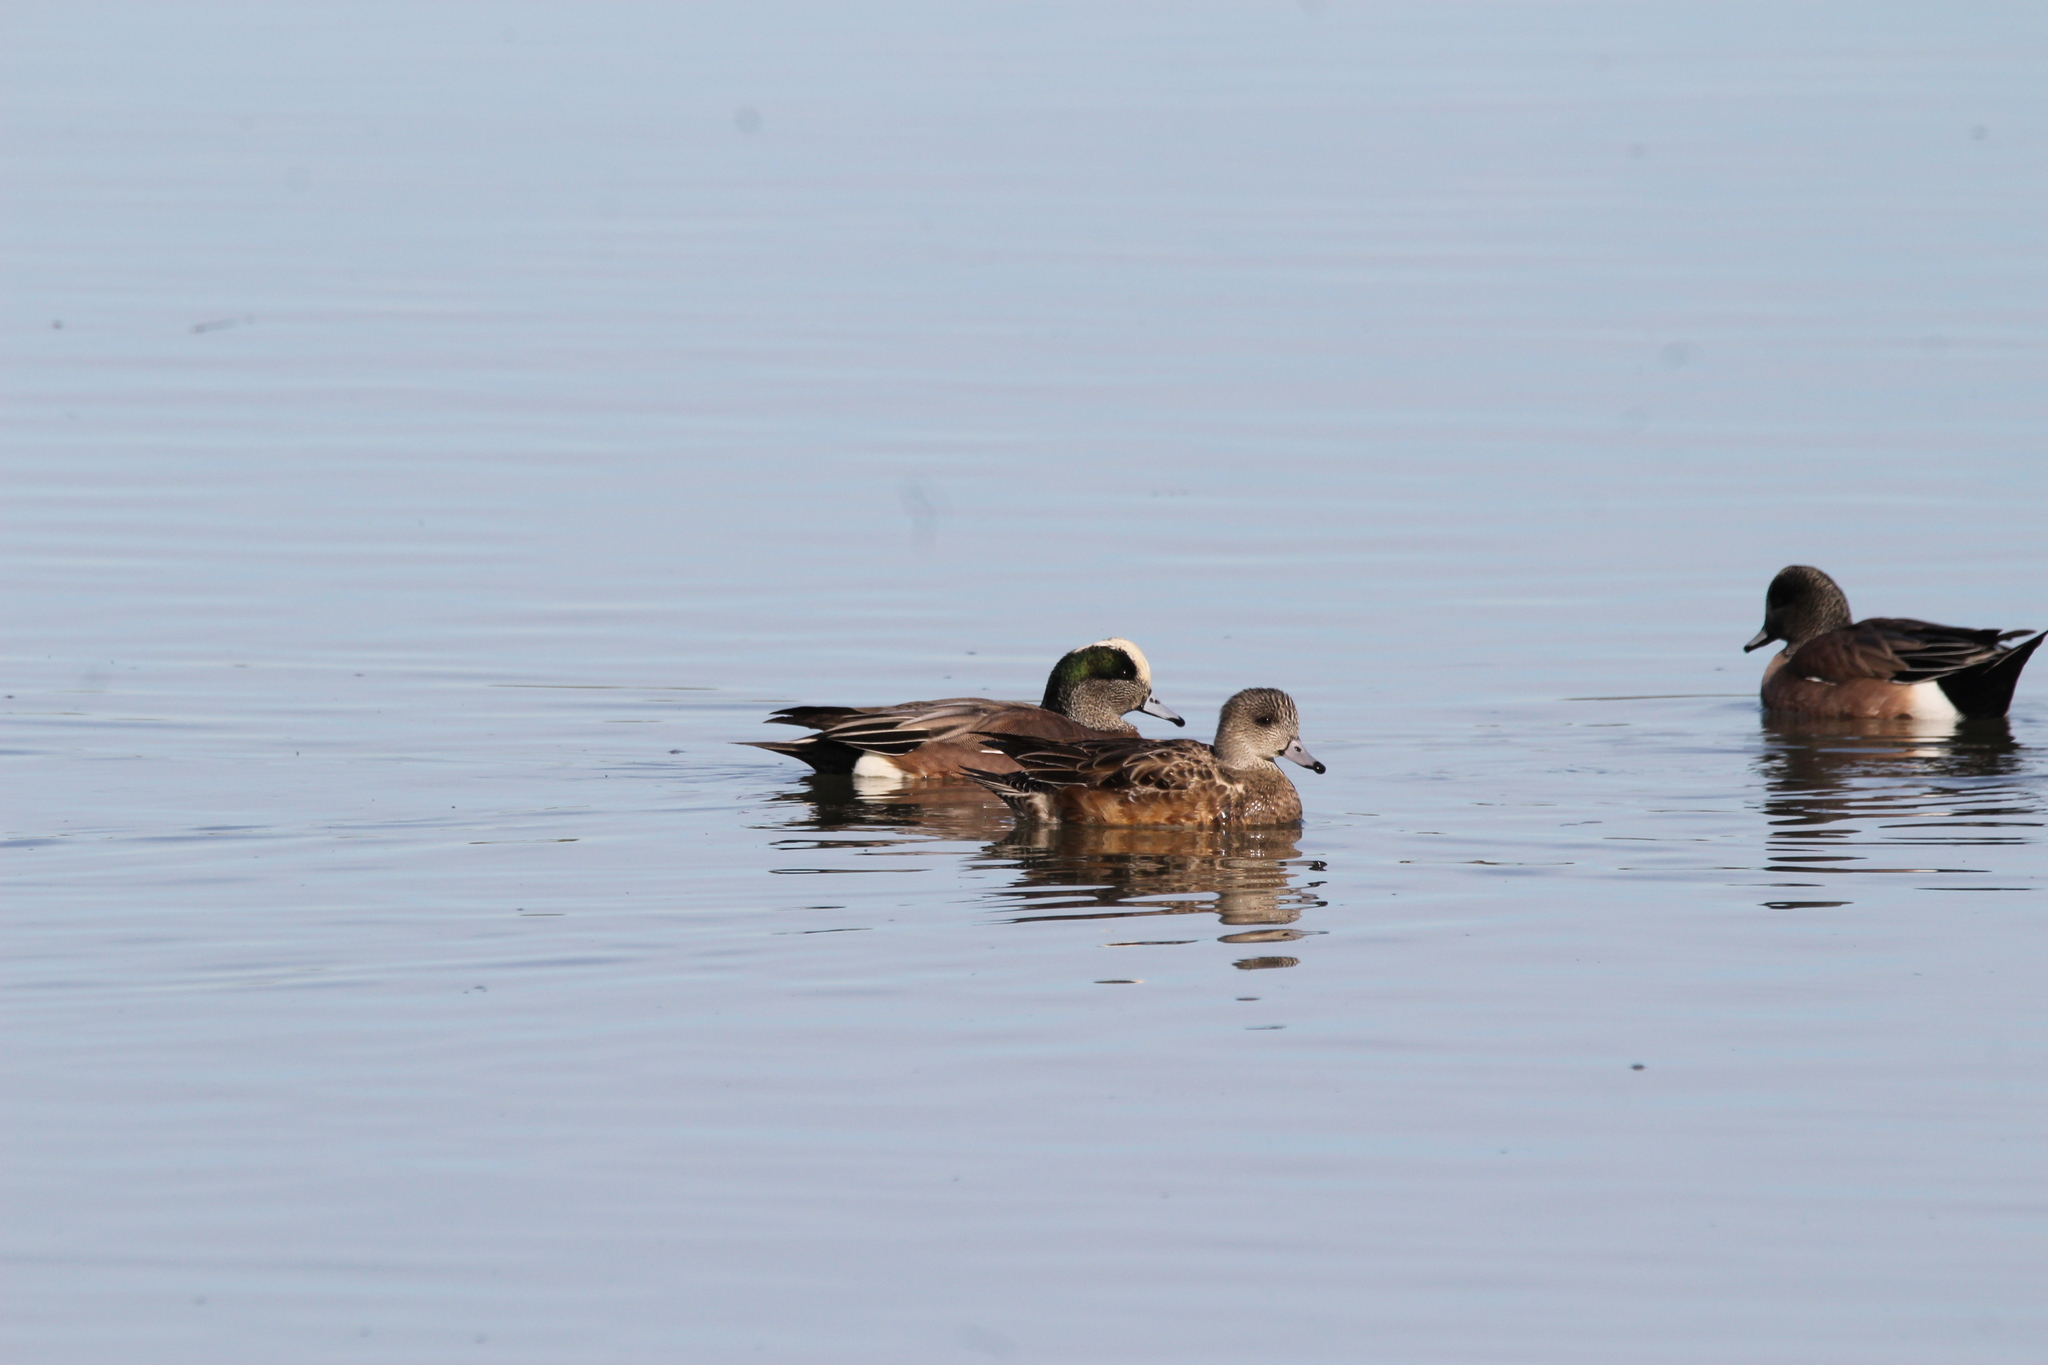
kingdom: Animalia
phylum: Chordata
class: Aves
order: Anseriformes
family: Anatidae
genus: Mareca
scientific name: Mareca americana
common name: American wigeon
